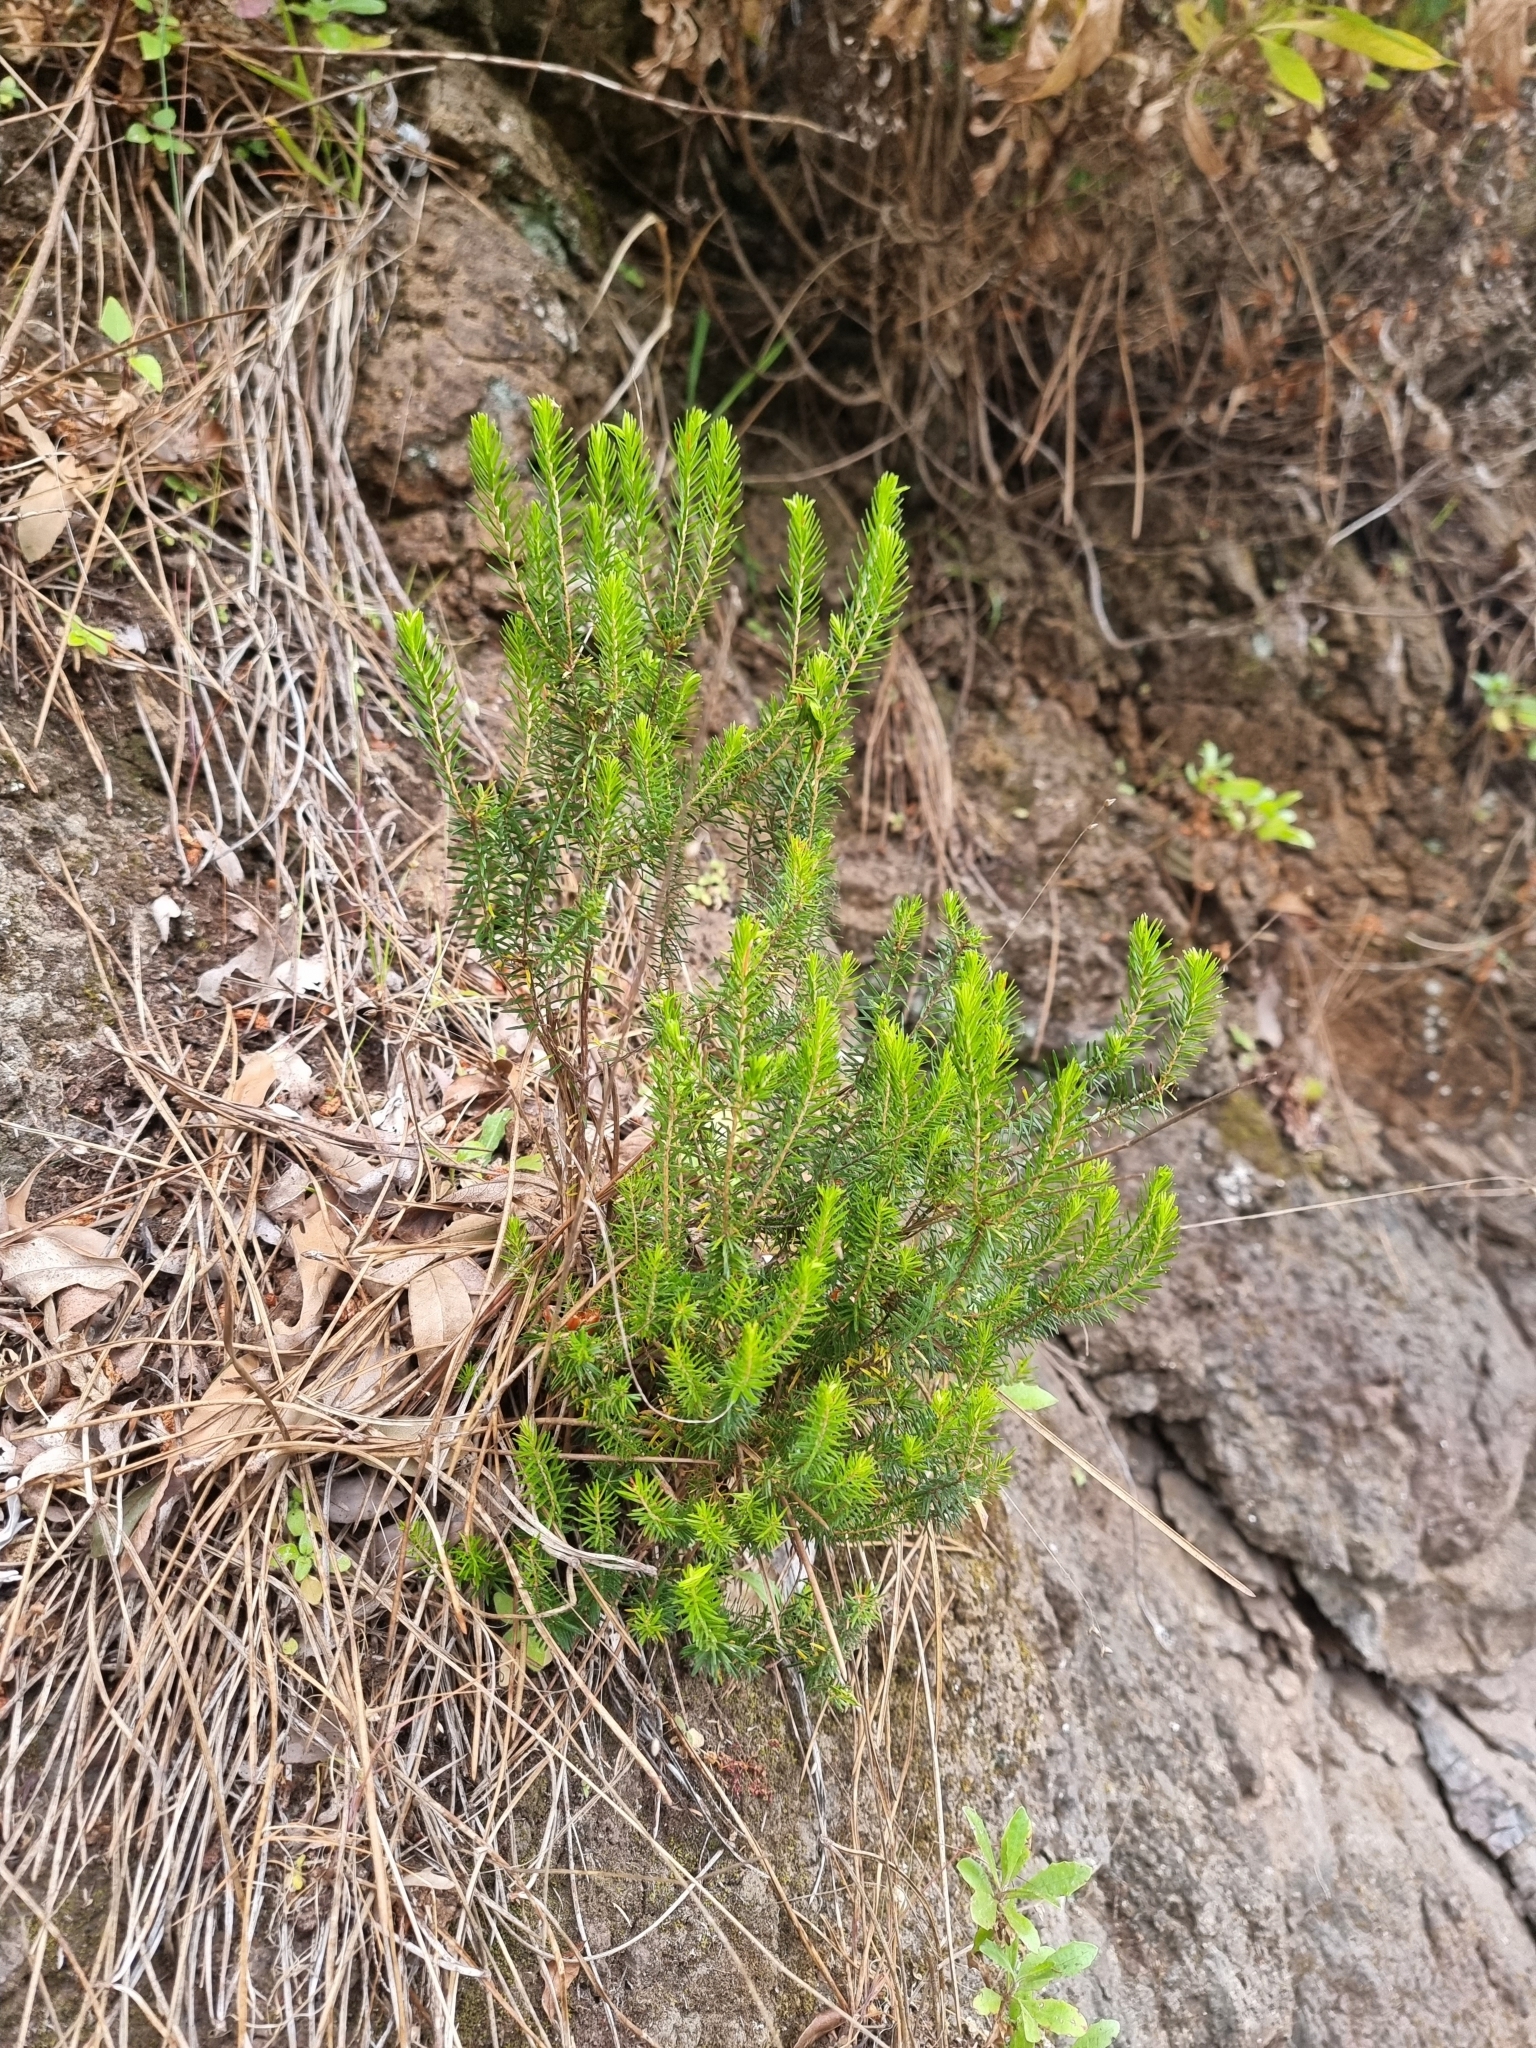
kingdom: Plantae
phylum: Tracheophyta
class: Magnoliopsida
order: Ericales
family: Ericaceae
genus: Erica
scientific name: Erica platycodon
